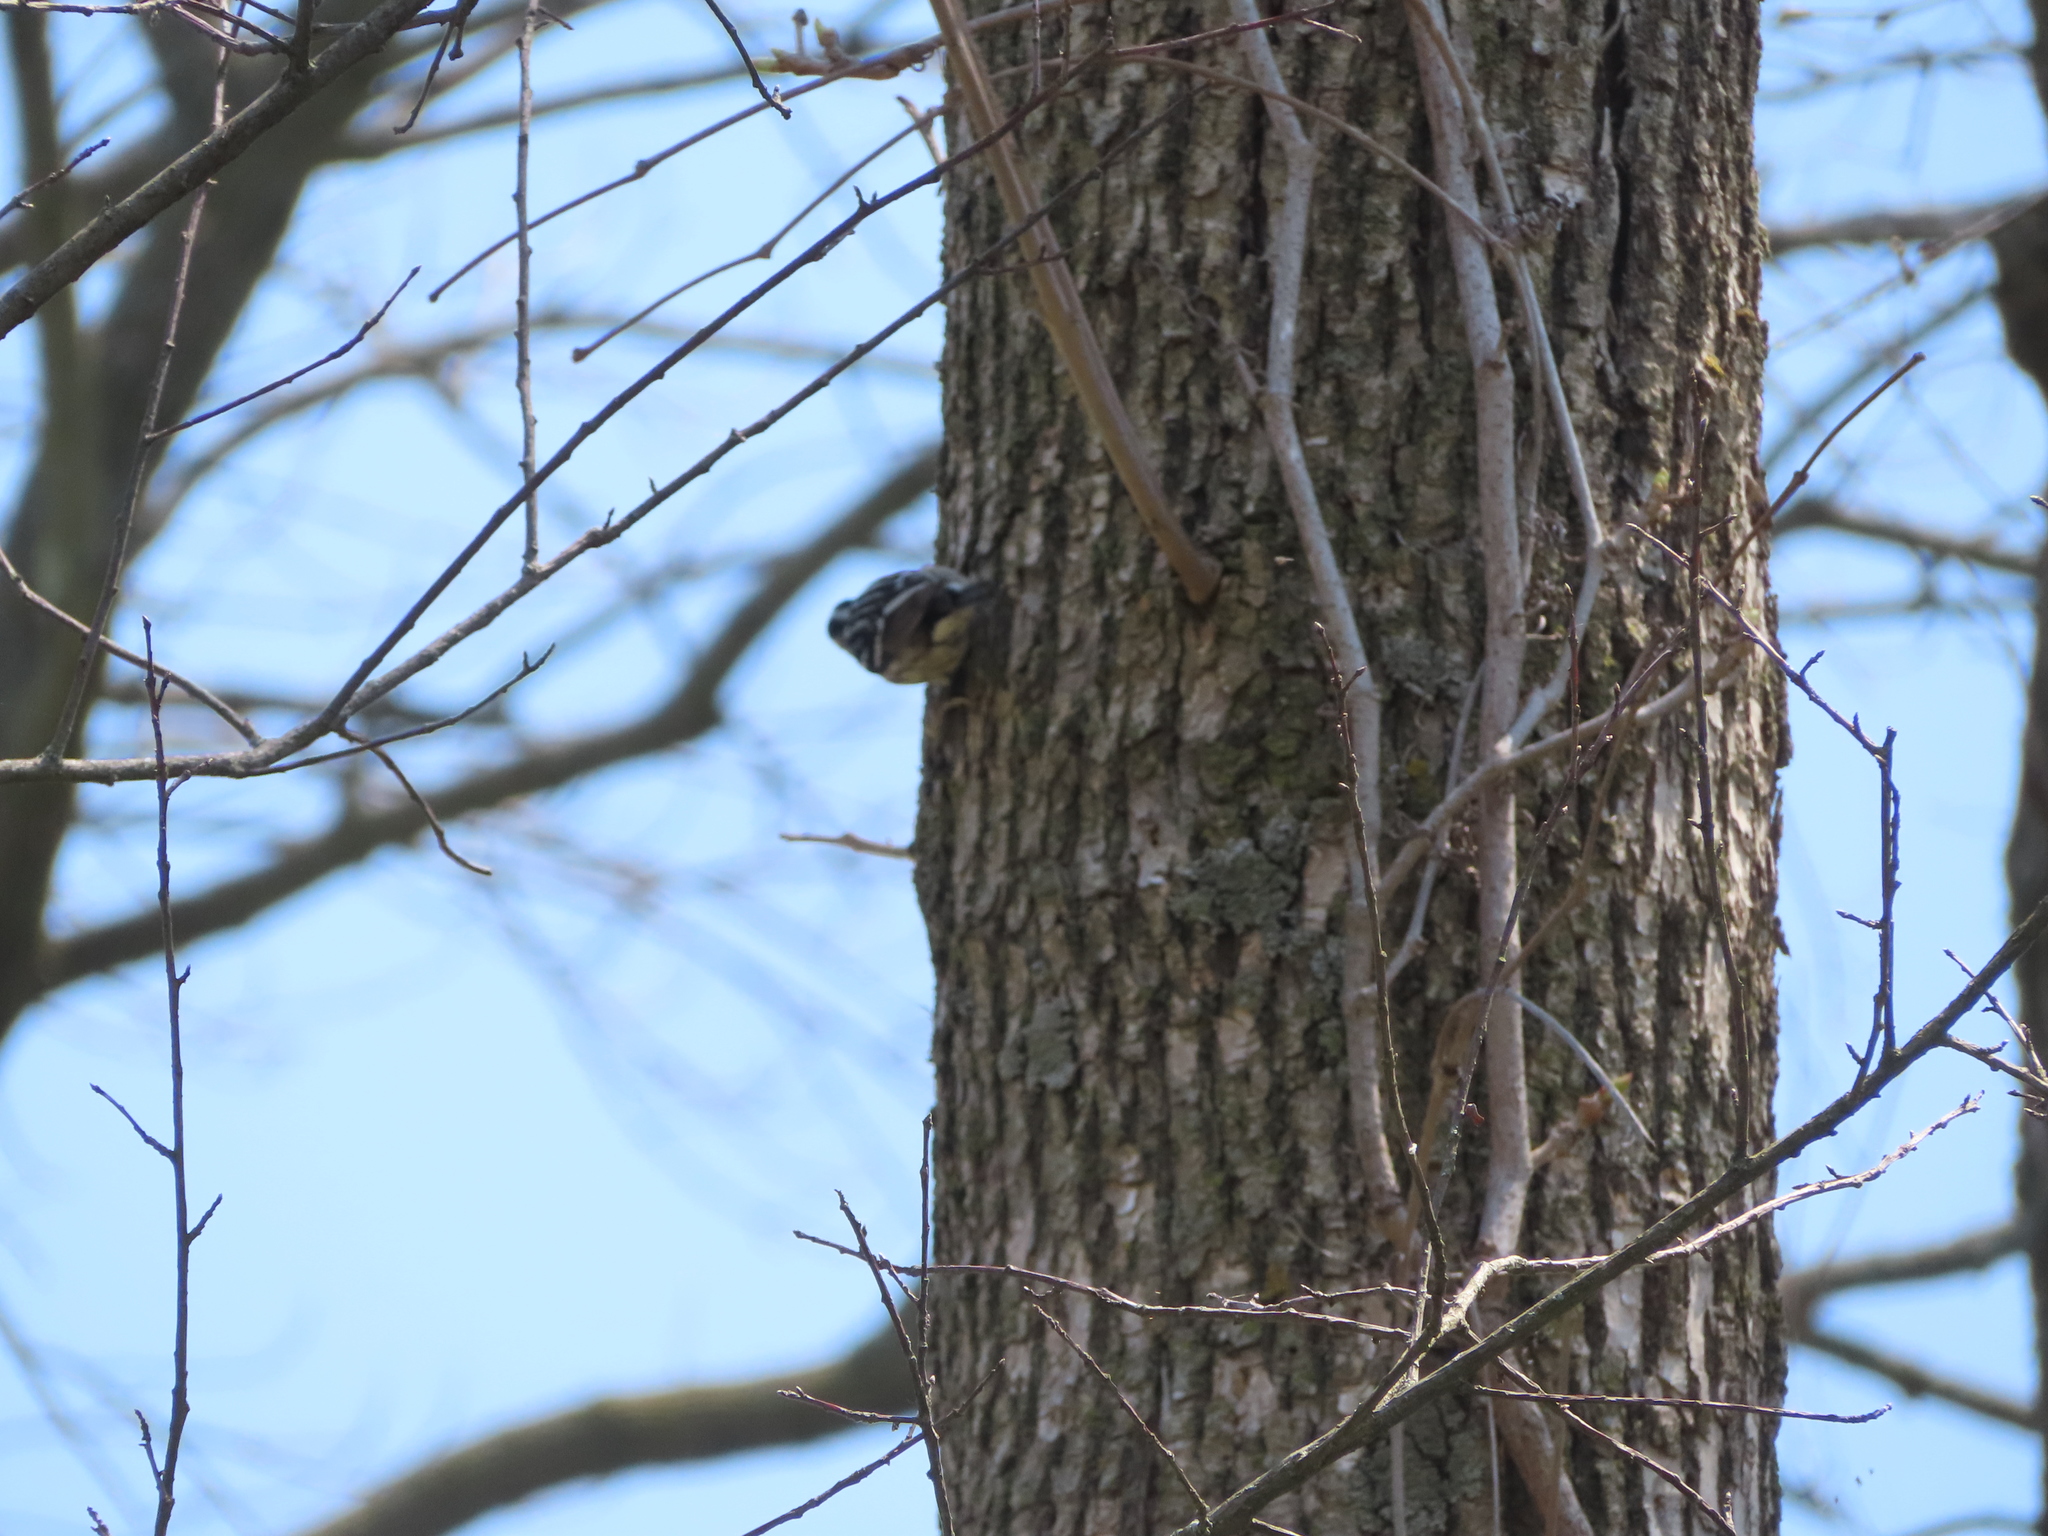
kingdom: Animalia
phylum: Chordata
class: Aves
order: Passeriformes
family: Parulidae
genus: Mniotilta
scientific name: Mniotilta varia
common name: Black-and-white warbler
